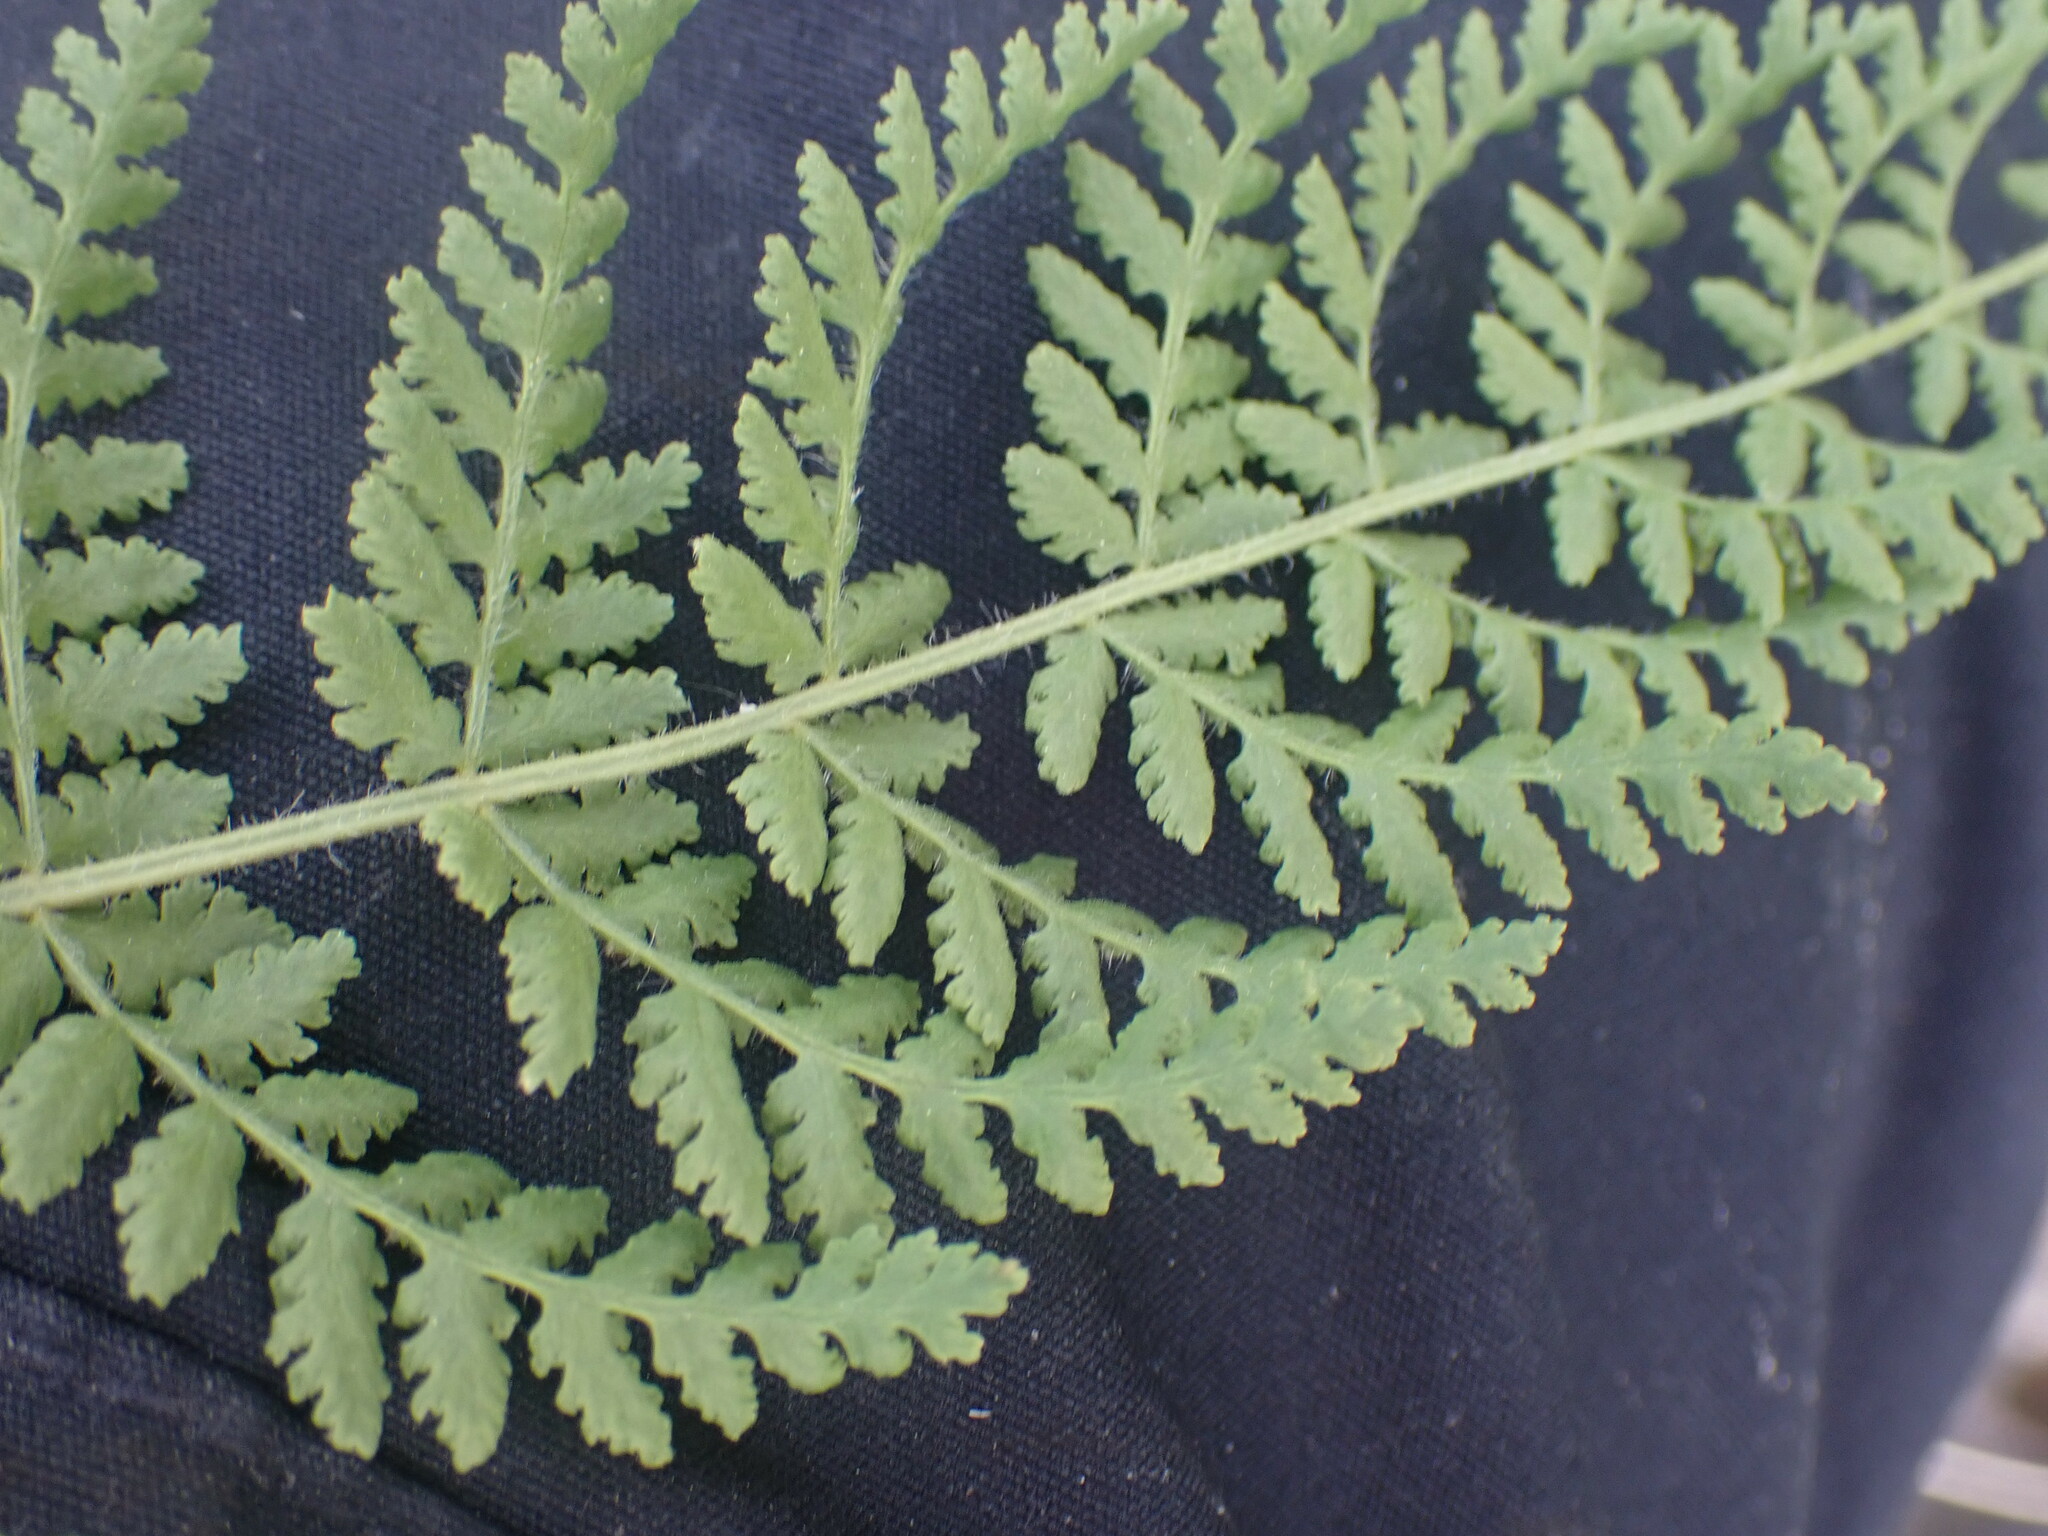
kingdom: Plantae
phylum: Tracheophyta
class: Polypodiopsida
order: Polypodiales
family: Woodsiaceae
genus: Physematium
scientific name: Physematium scopulinum
